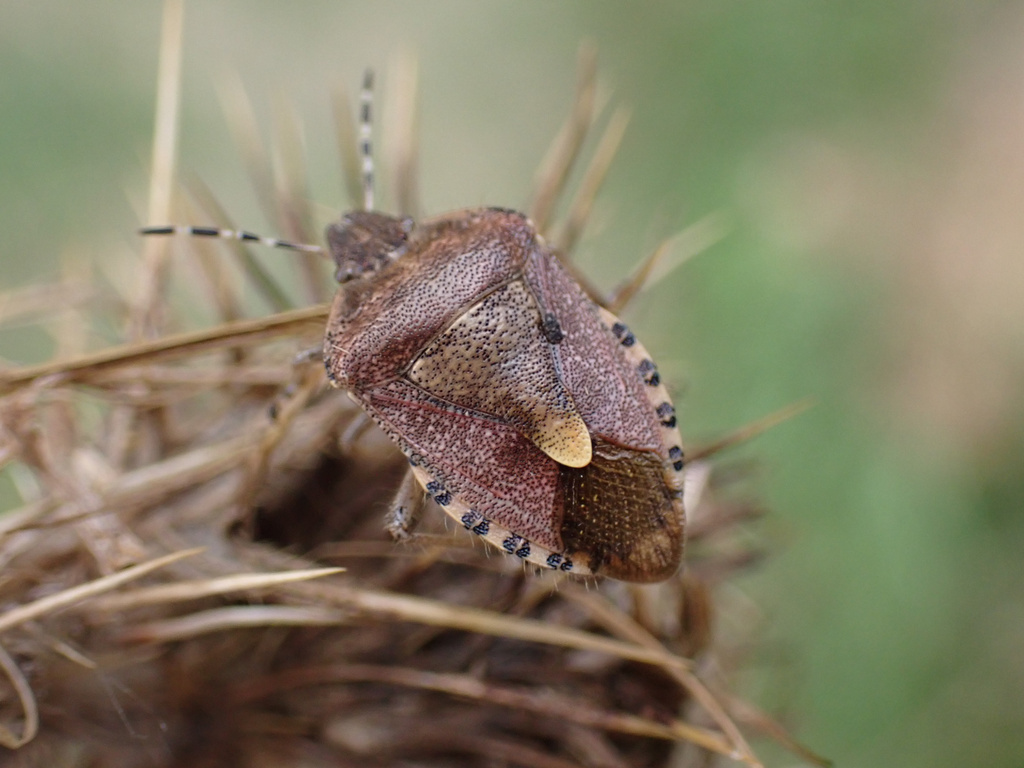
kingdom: Animalia
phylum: Arthropoda
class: Insecta
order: Hemiptera
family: Pentatomidae
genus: Dolycoris
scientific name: Dolycoris baccarum
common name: Sloe bug
